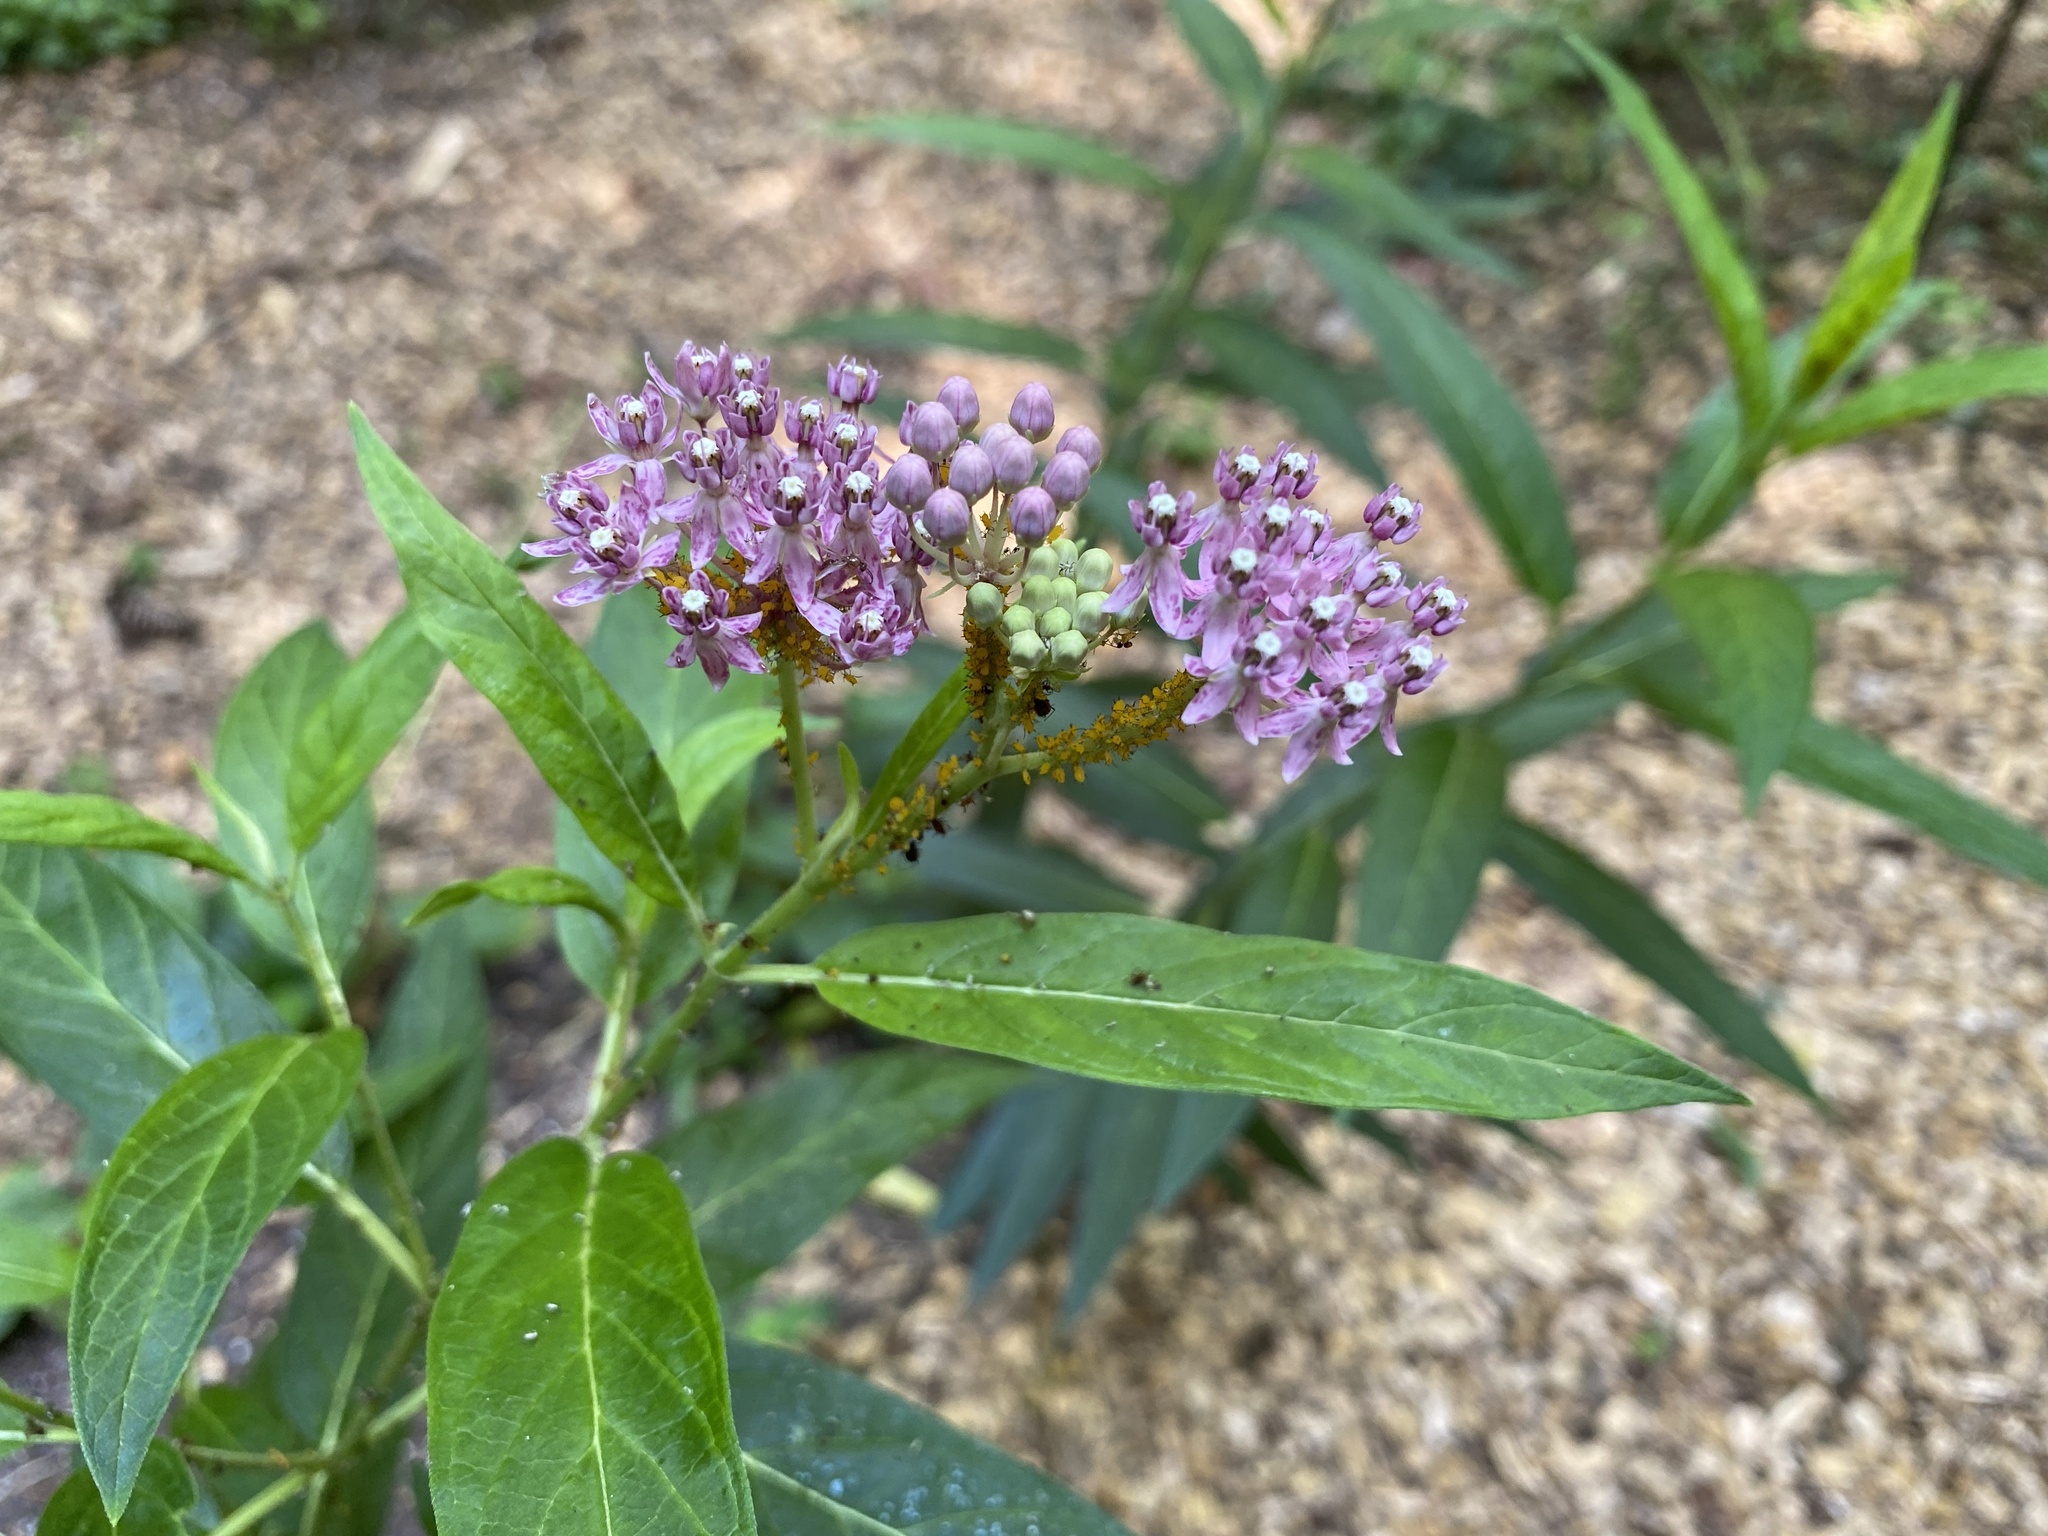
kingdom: Plantae
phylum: Tracheophyta
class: Magnoliopsida
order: Gentianales
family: Apocynaceae
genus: Asclepias
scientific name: Asclepias incarnata
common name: Swamp milkweed
